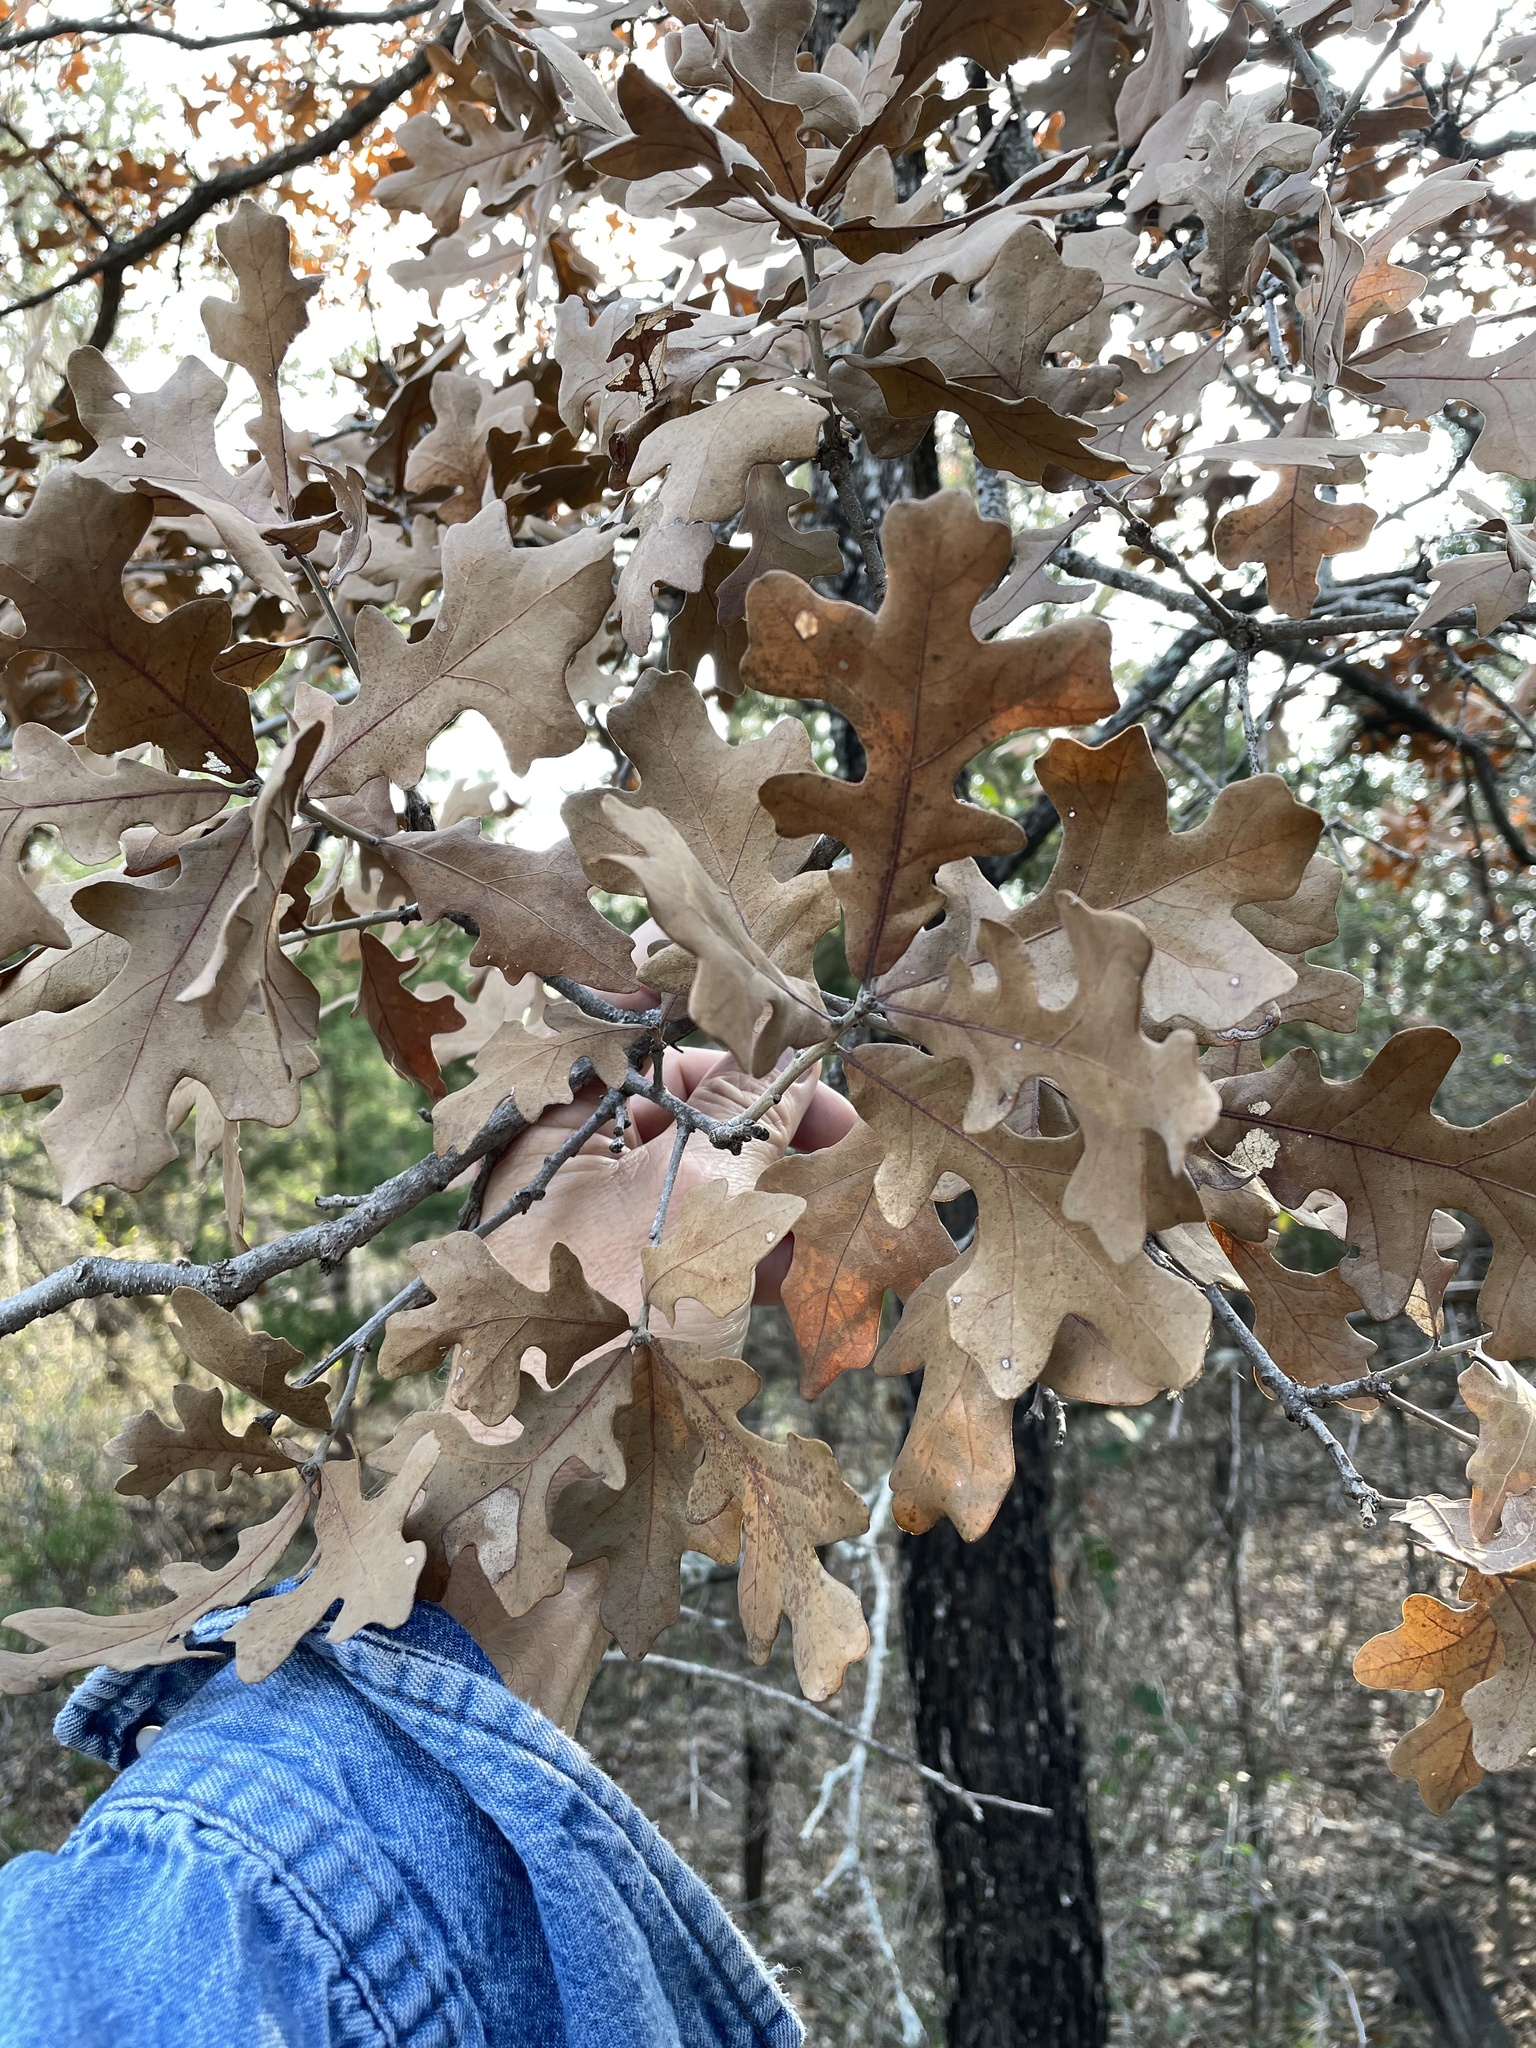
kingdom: Plantae
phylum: Tracheophyta
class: Magnoliopsida
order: Fagales
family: Fagaceae
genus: Quercus
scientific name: Quercus stellata
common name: Post oak
